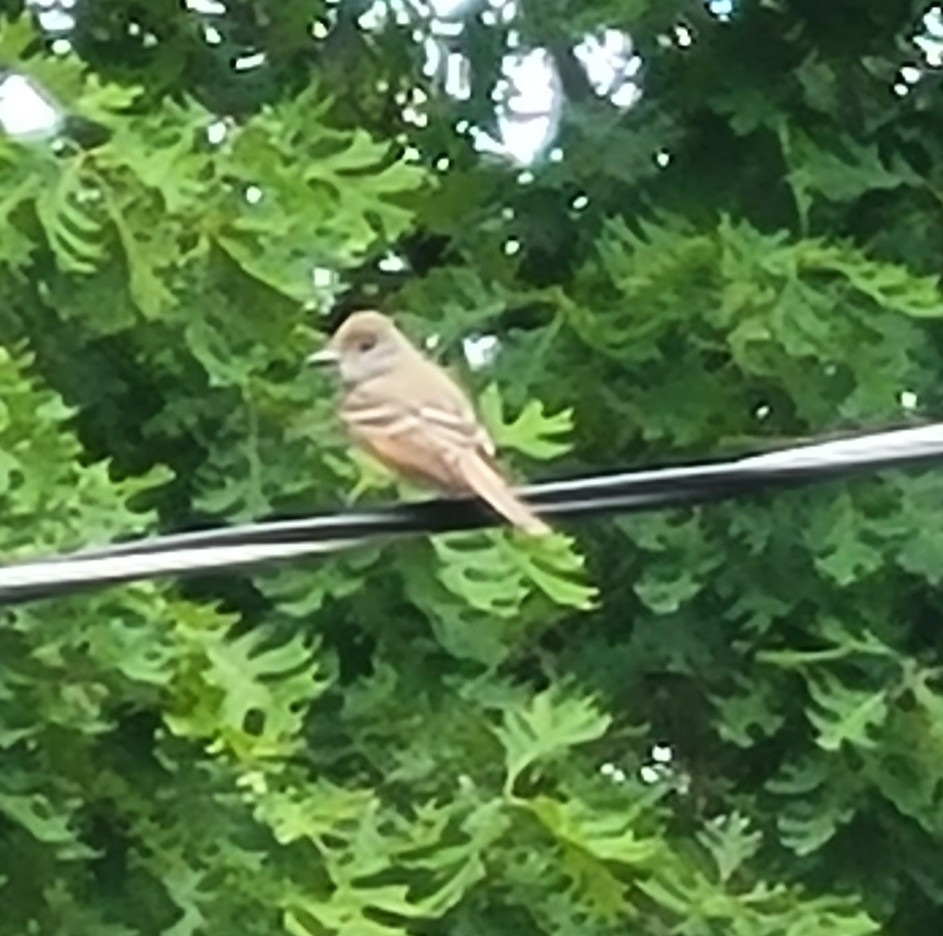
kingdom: Animalia
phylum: Chordata
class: Aves
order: Passeriformes
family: Tyrannidae
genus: Myiarchus
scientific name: Myiarchus crinitus
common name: Great crested flycatcher
